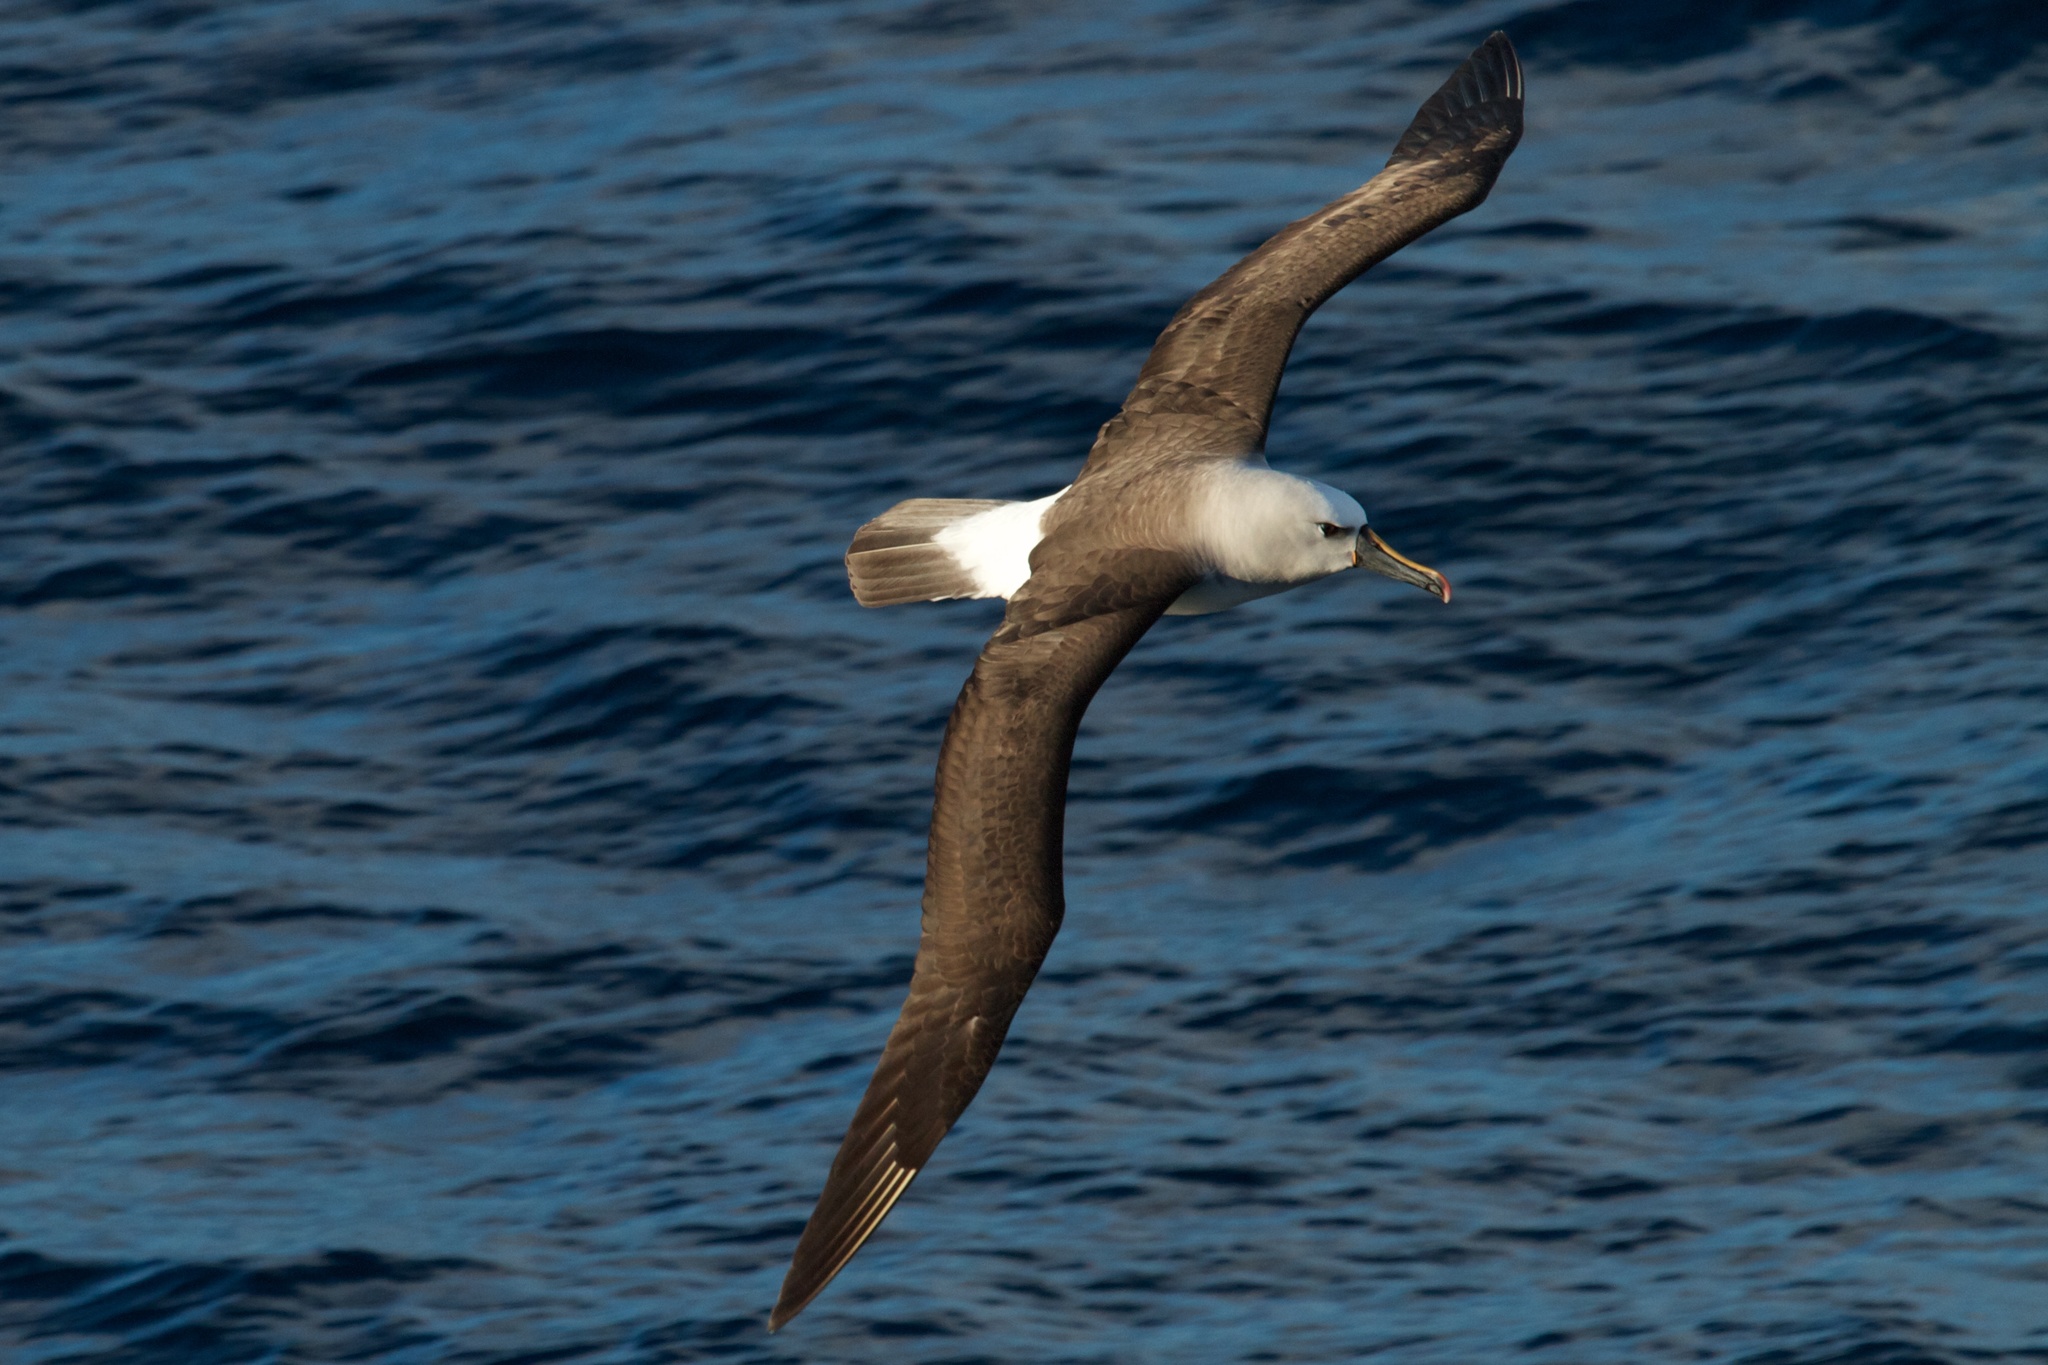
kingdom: Animalia
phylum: Chordata
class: Aves
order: Procellariiformes
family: Diomedeidae
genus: Thalassarche
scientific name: Thalassarche chlororhynchos
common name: Atlantic yellow-nosed albatross
